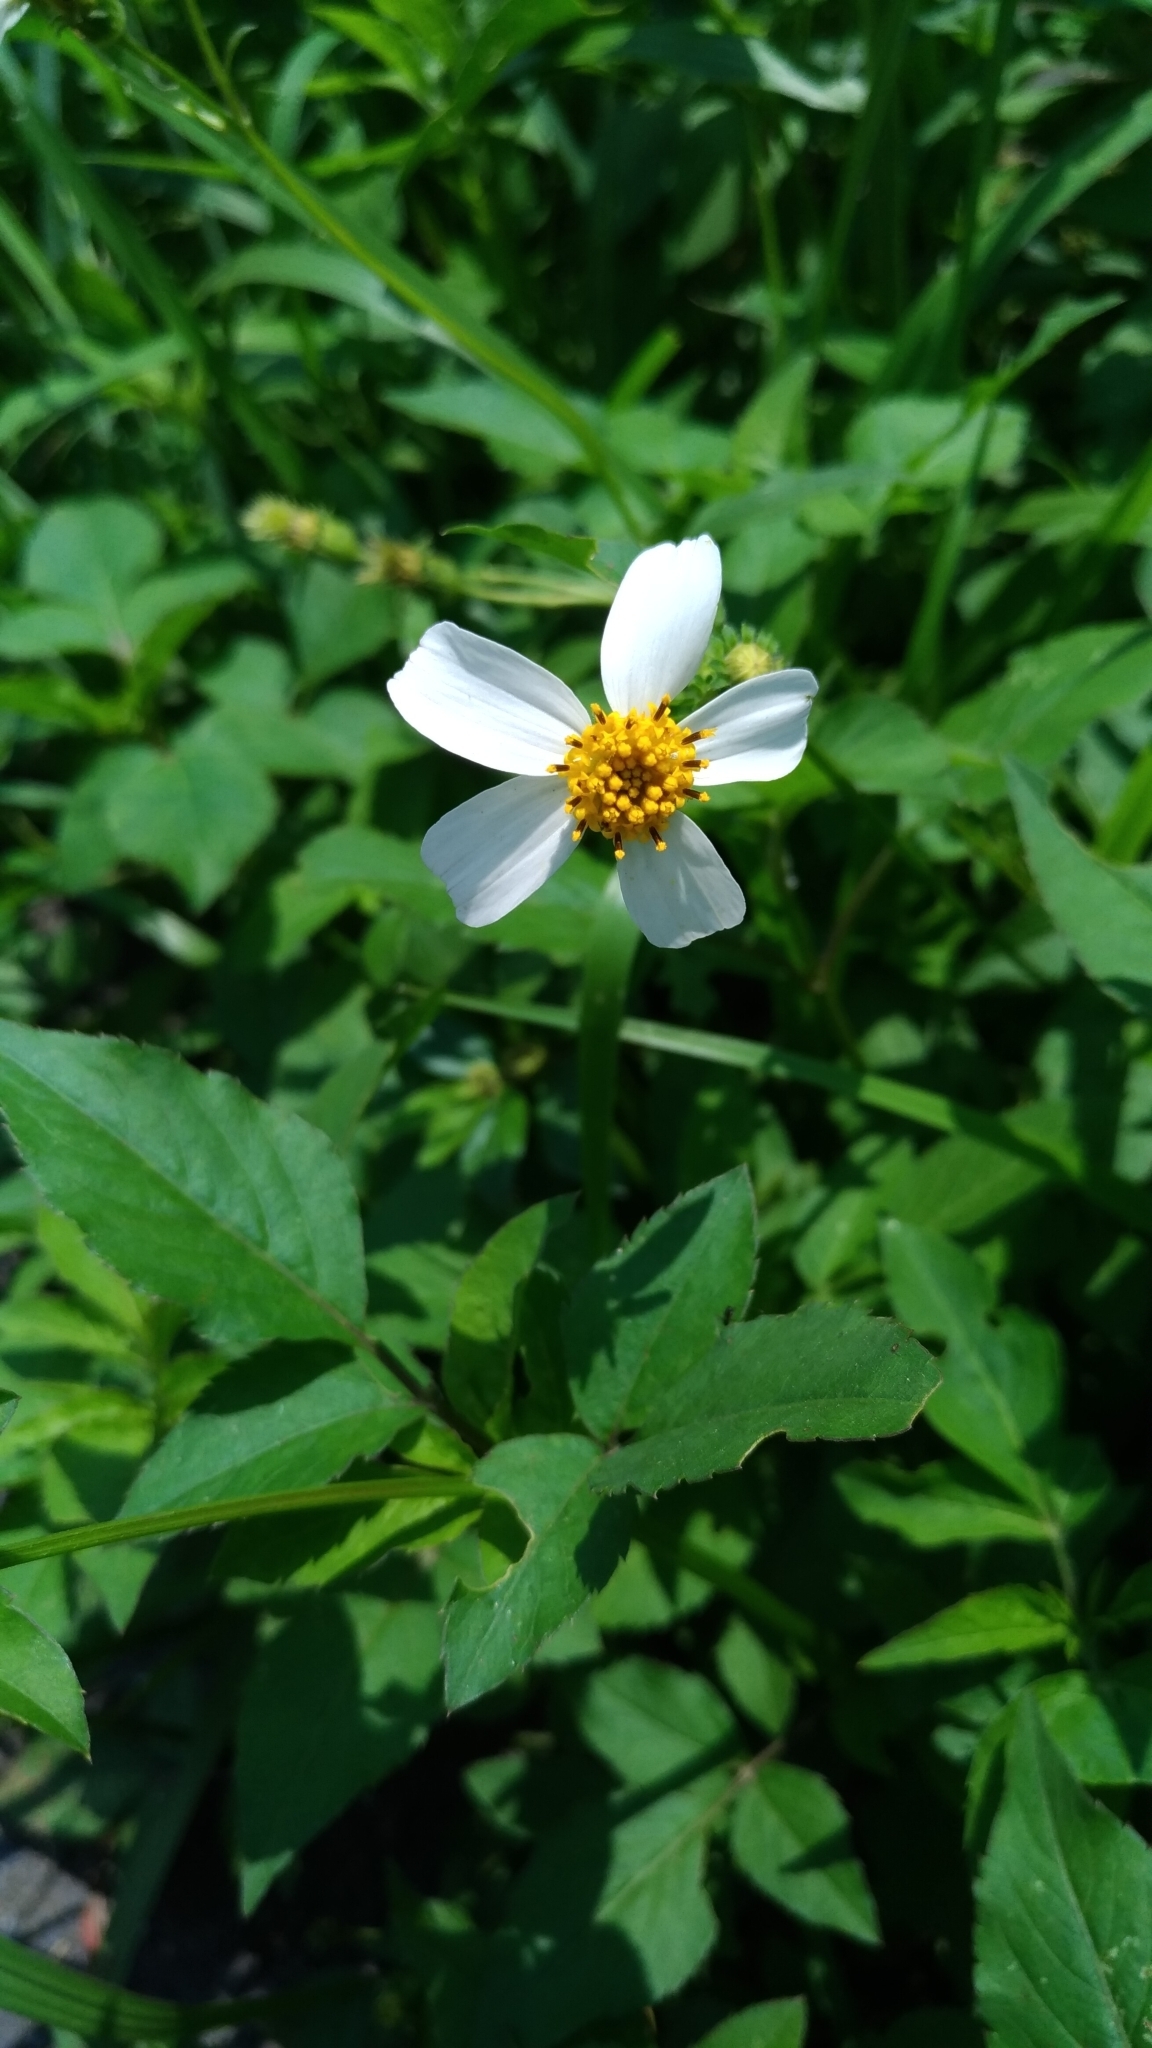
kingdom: Plantae
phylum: Tracheophyta
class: Magnoliopsida
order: Asterales
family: Asteraceae
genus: Bidens
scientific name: Bidens alba
